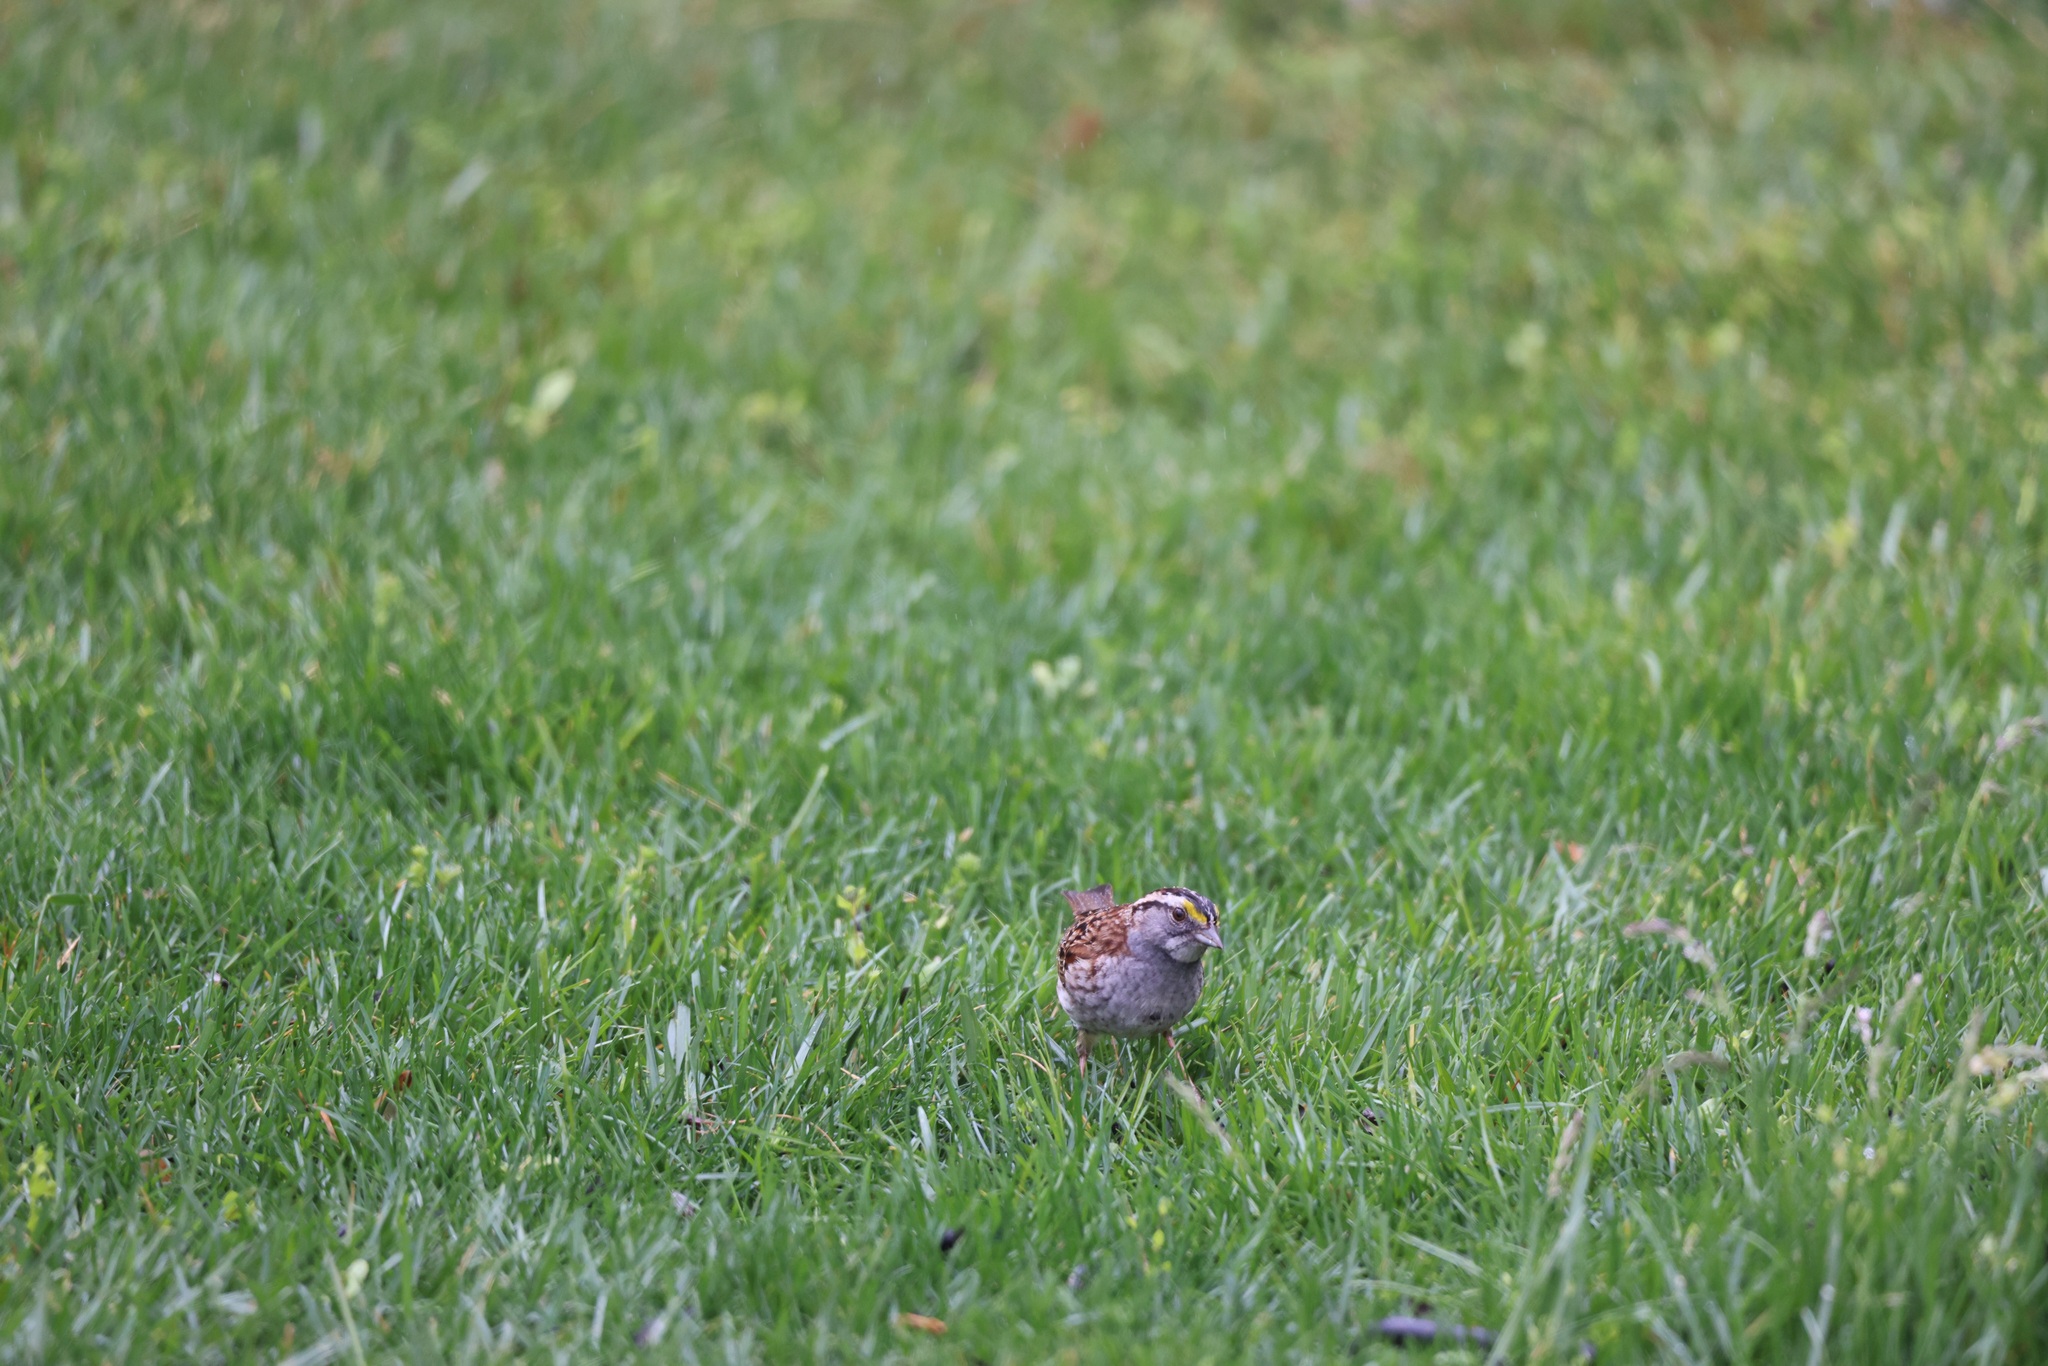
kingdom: Animalia
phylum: Chordata
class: Aves
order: Passeriformes
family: Passerellidae
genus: Zonotrichia
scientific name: Zonotrichia albicollis
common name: White-throated sparrow
